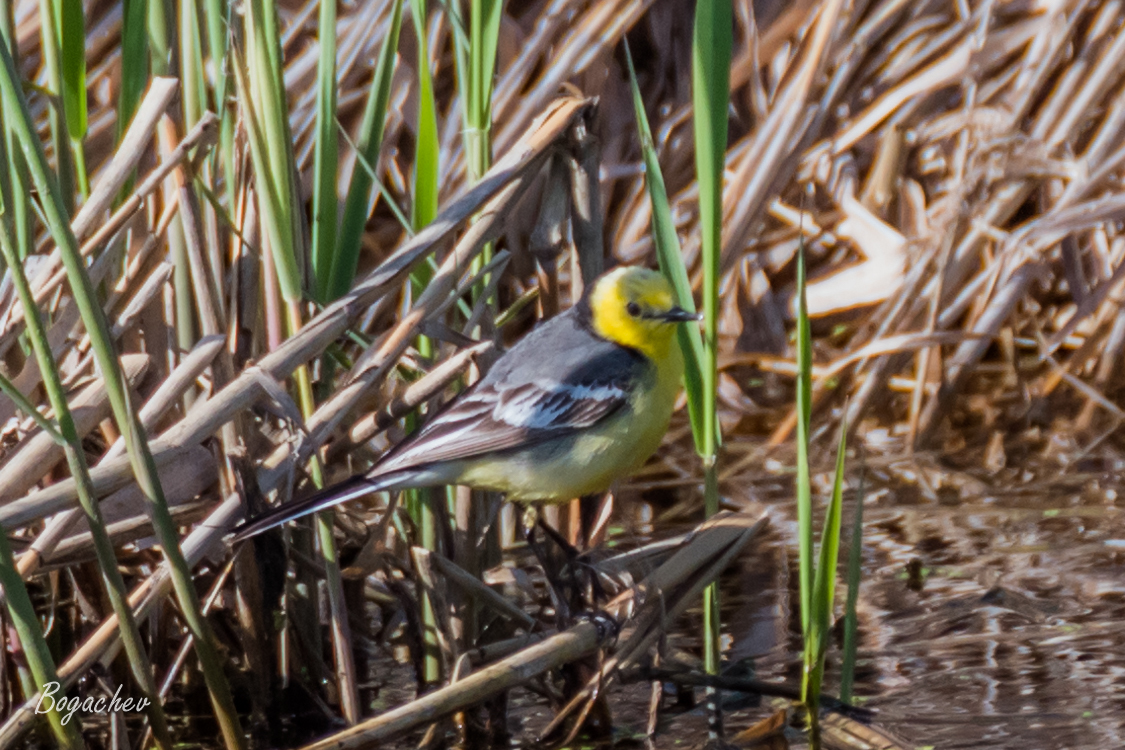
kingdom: Animalia
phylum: Chordata
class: Aves
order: Passeriformes
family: Motacillidae
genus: Motacilla
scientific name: Motacilla citreola
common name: Citrine wagtail
